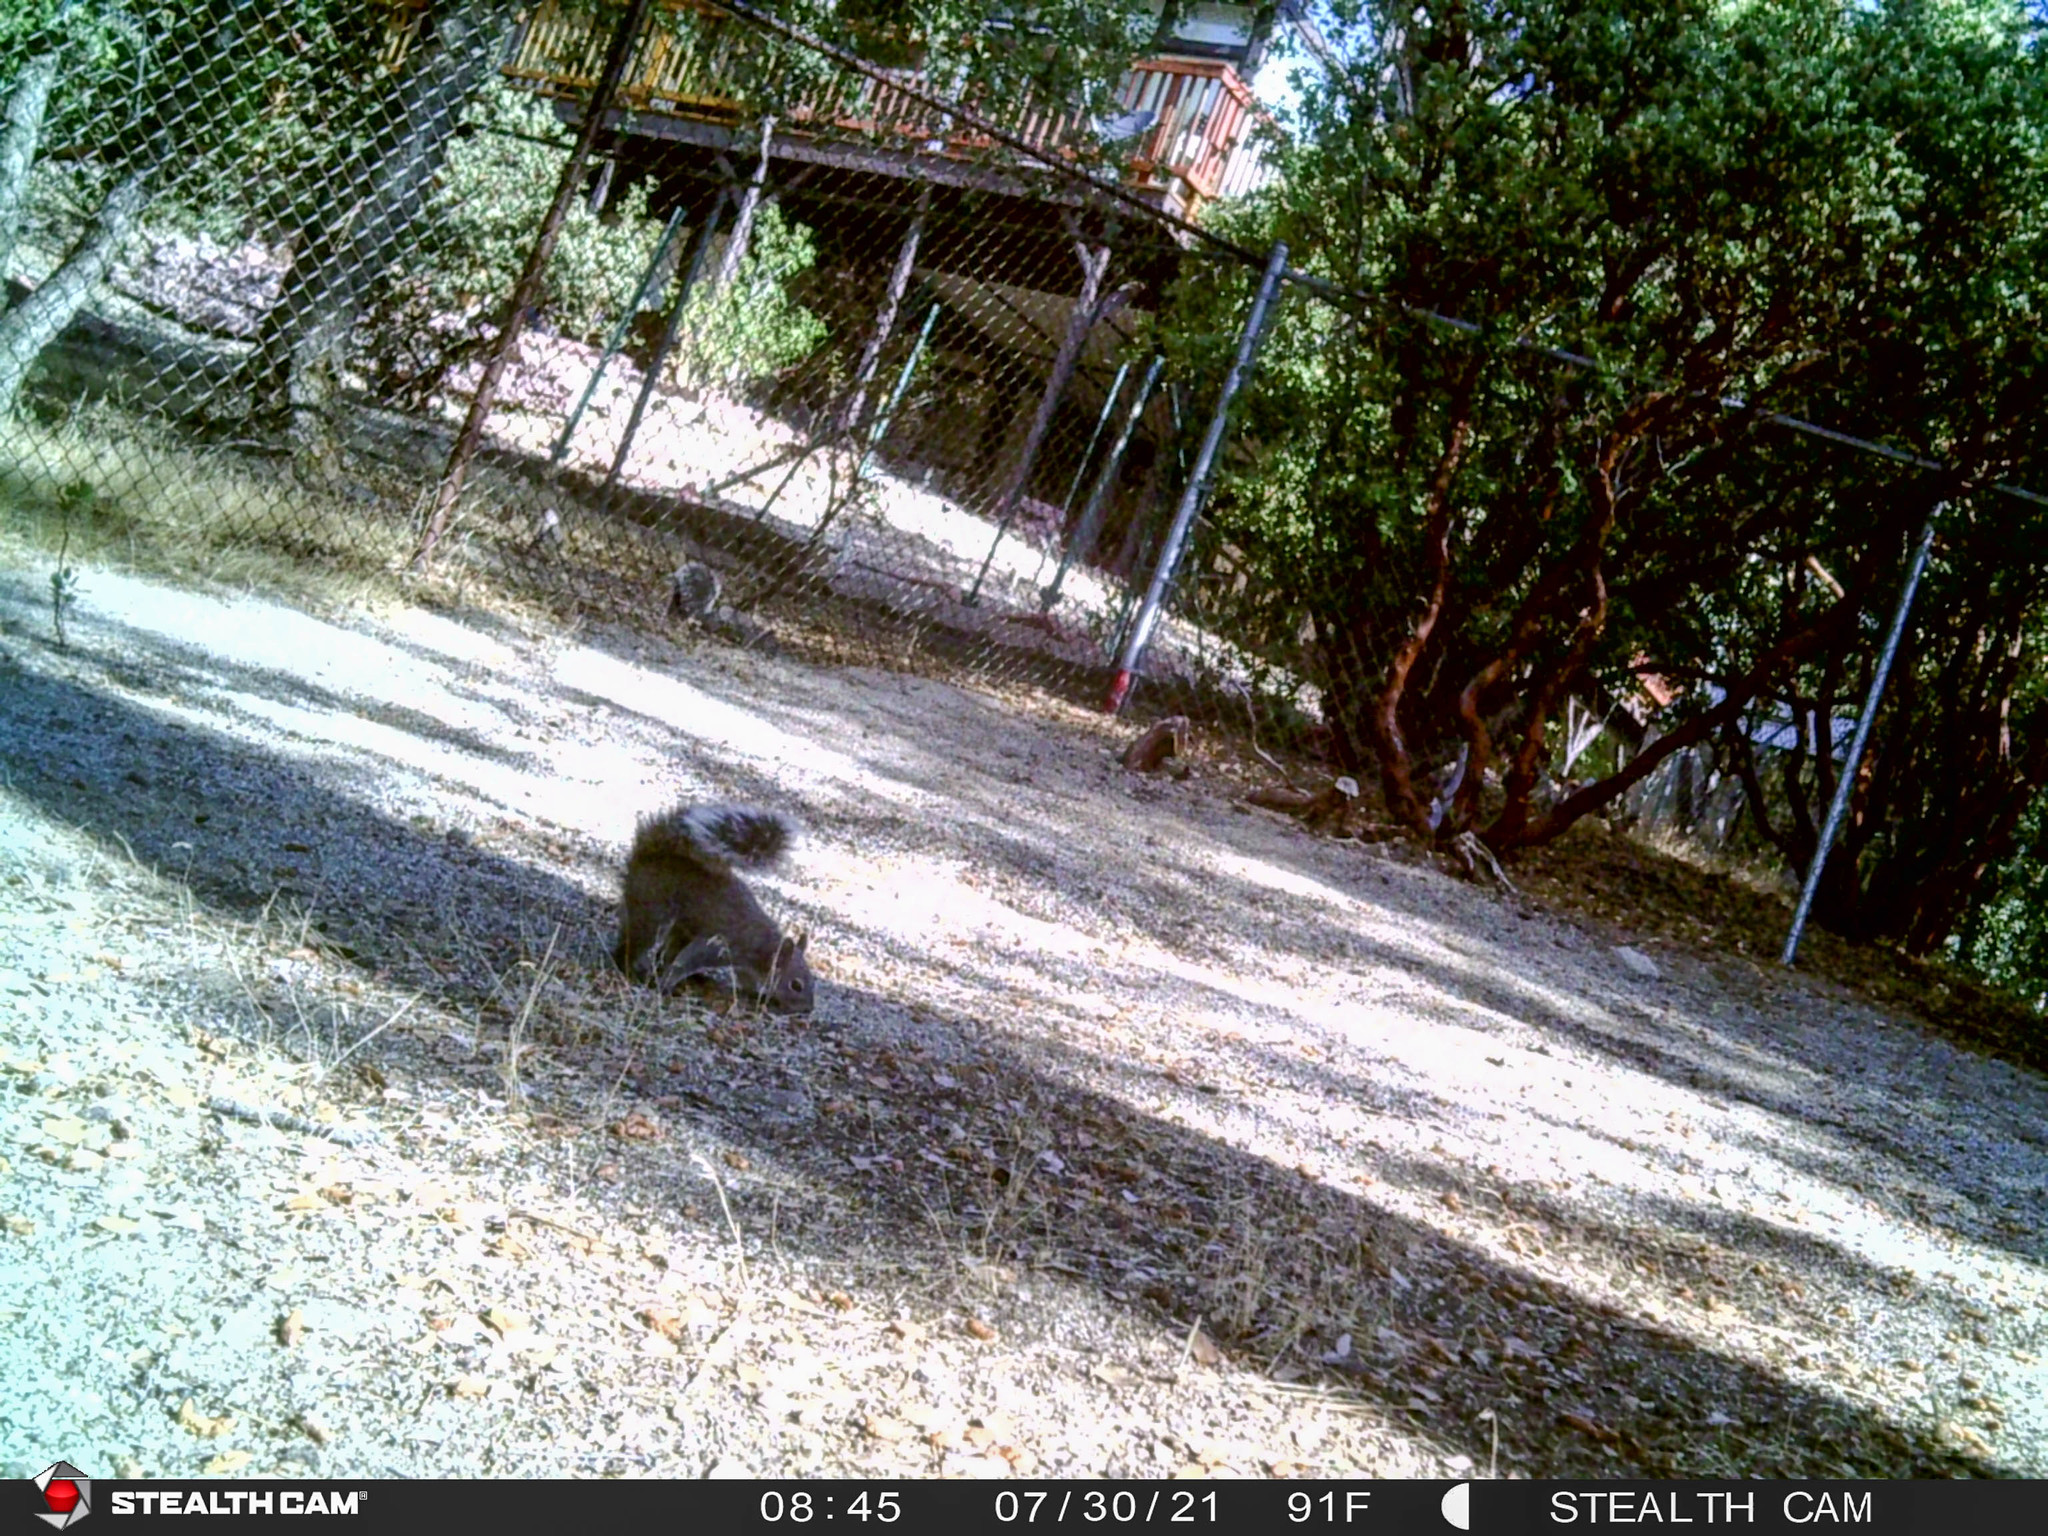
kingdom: Animalia
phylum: Chordata
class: Mammalia
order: Rodentia
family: Sciuridae
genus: Sciurus
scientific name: Sciurus griseus
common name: Western gray squirrel
